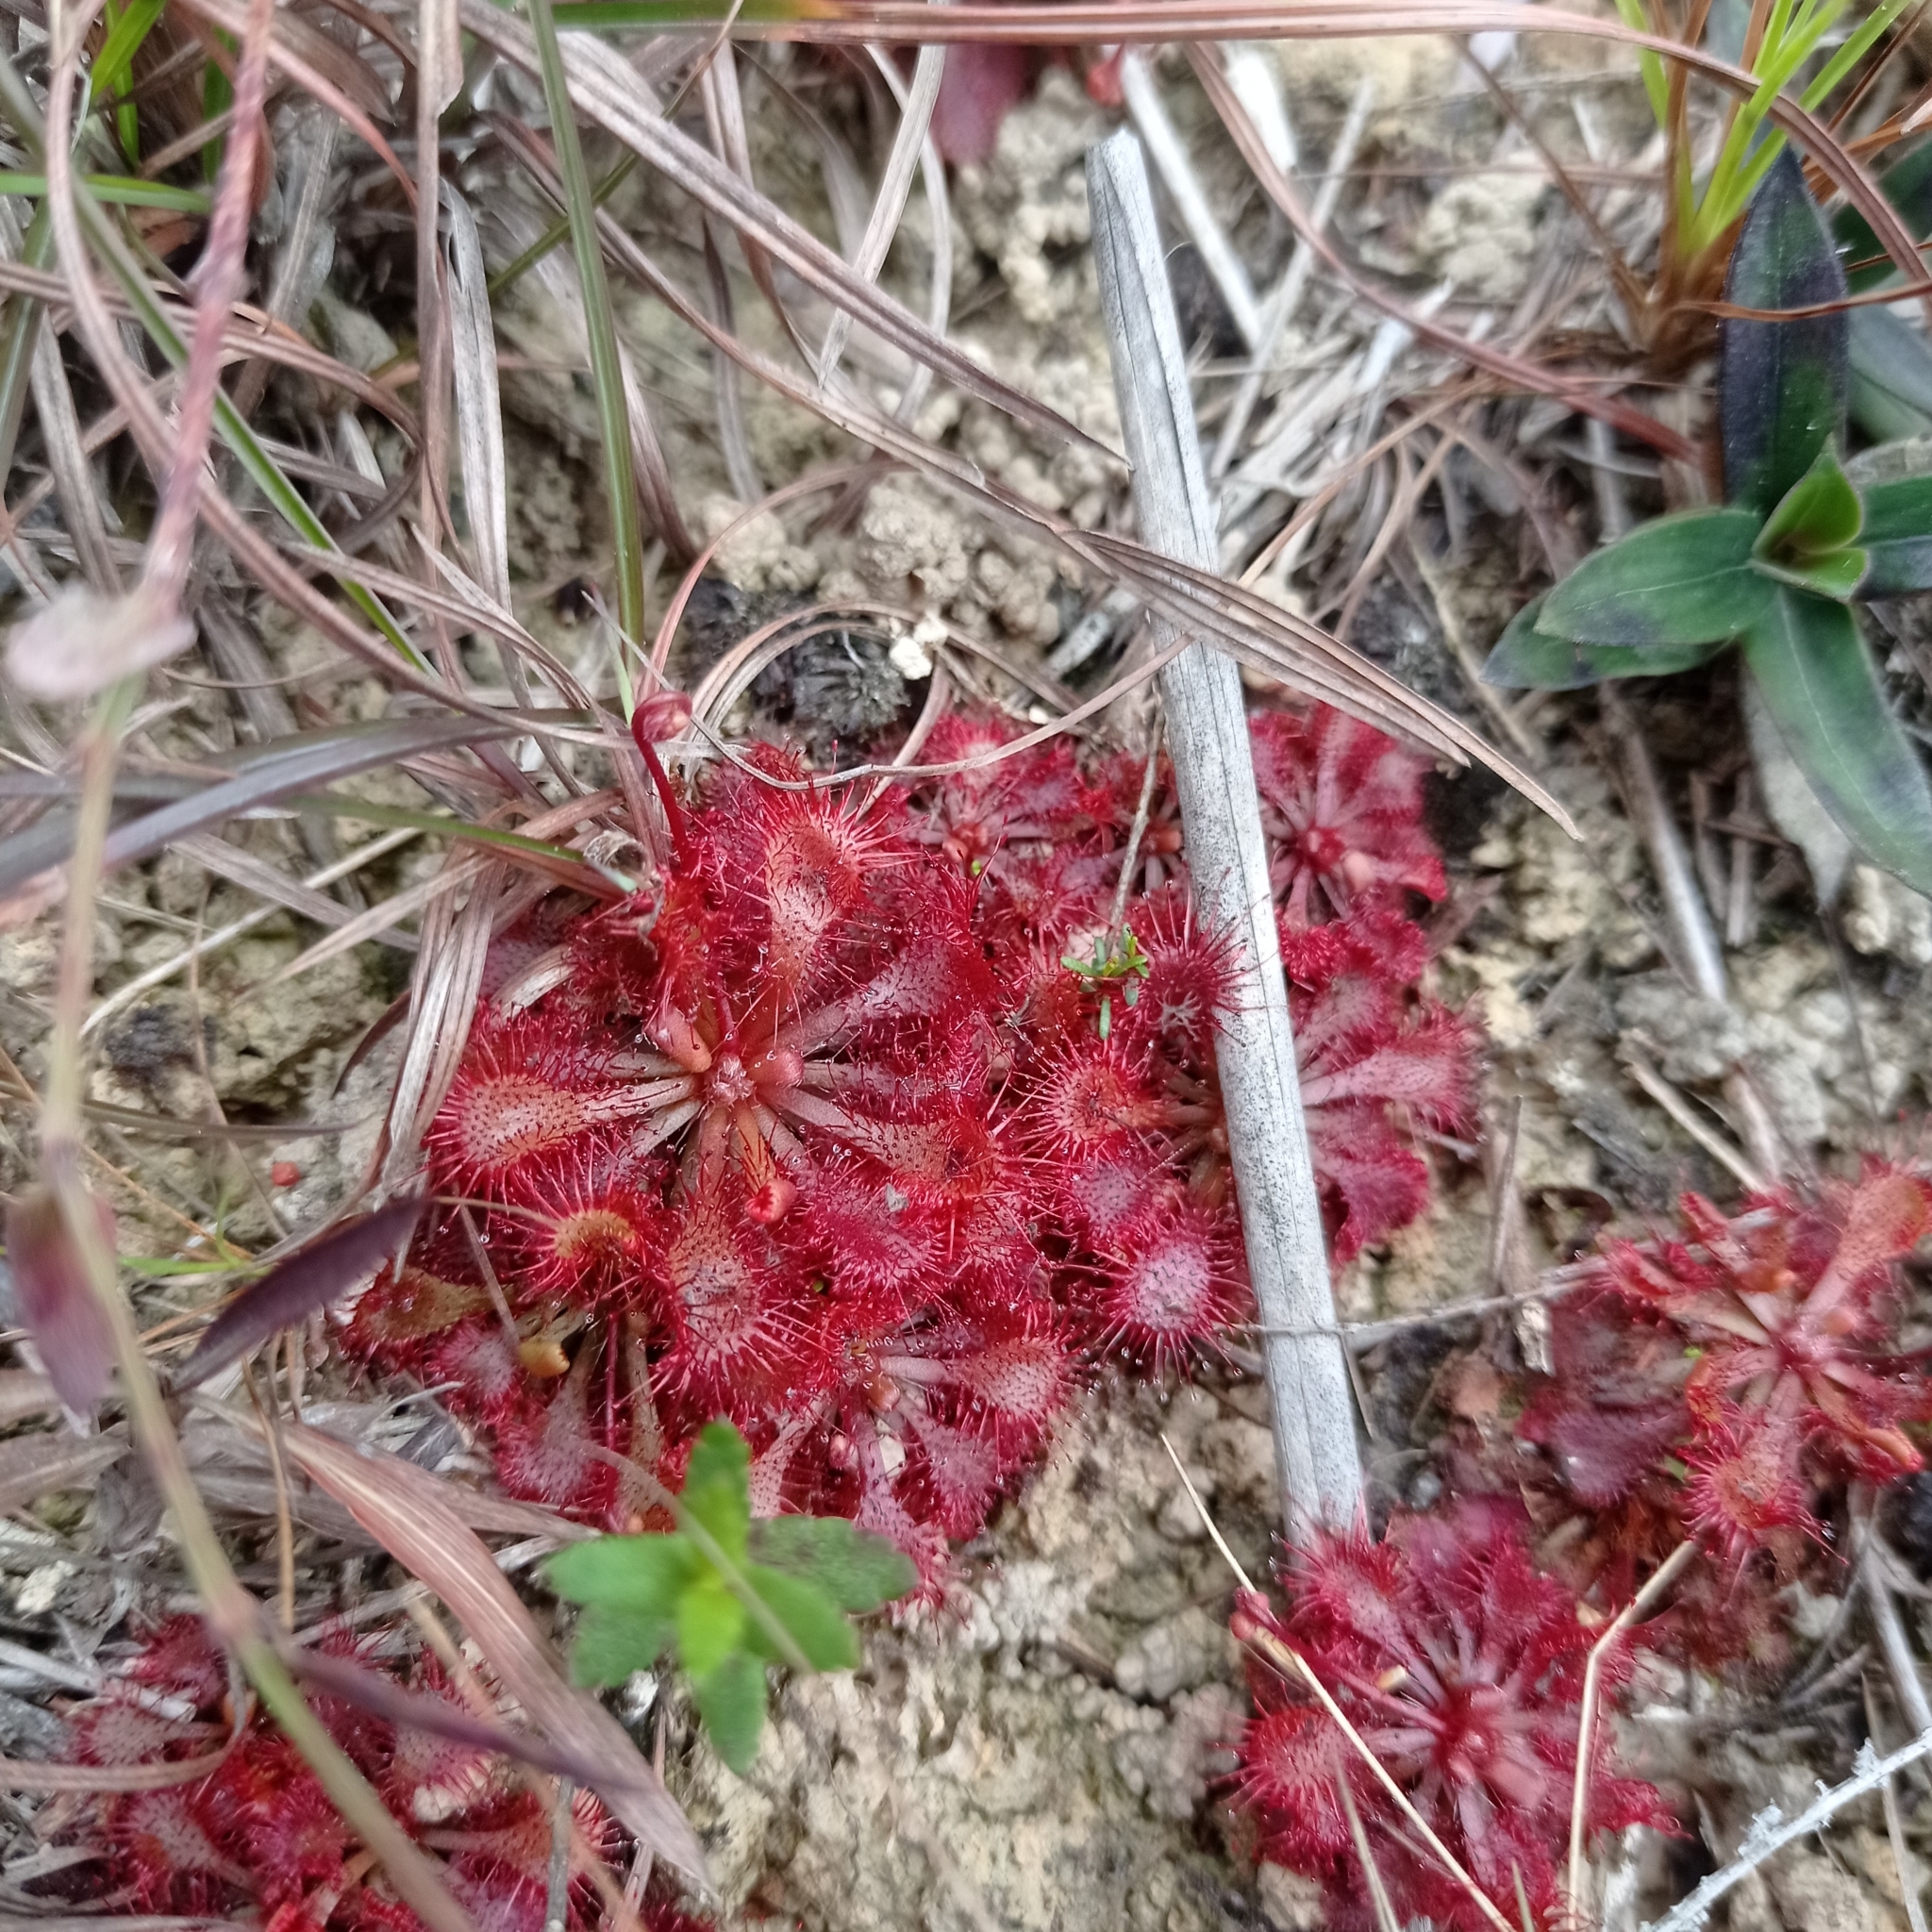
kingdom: Plantae
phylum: Tracheophyta
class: Magnoliopsida
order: Caryophyllales
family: Droseraceae
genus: Drosera
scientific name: Drosera spatulata
